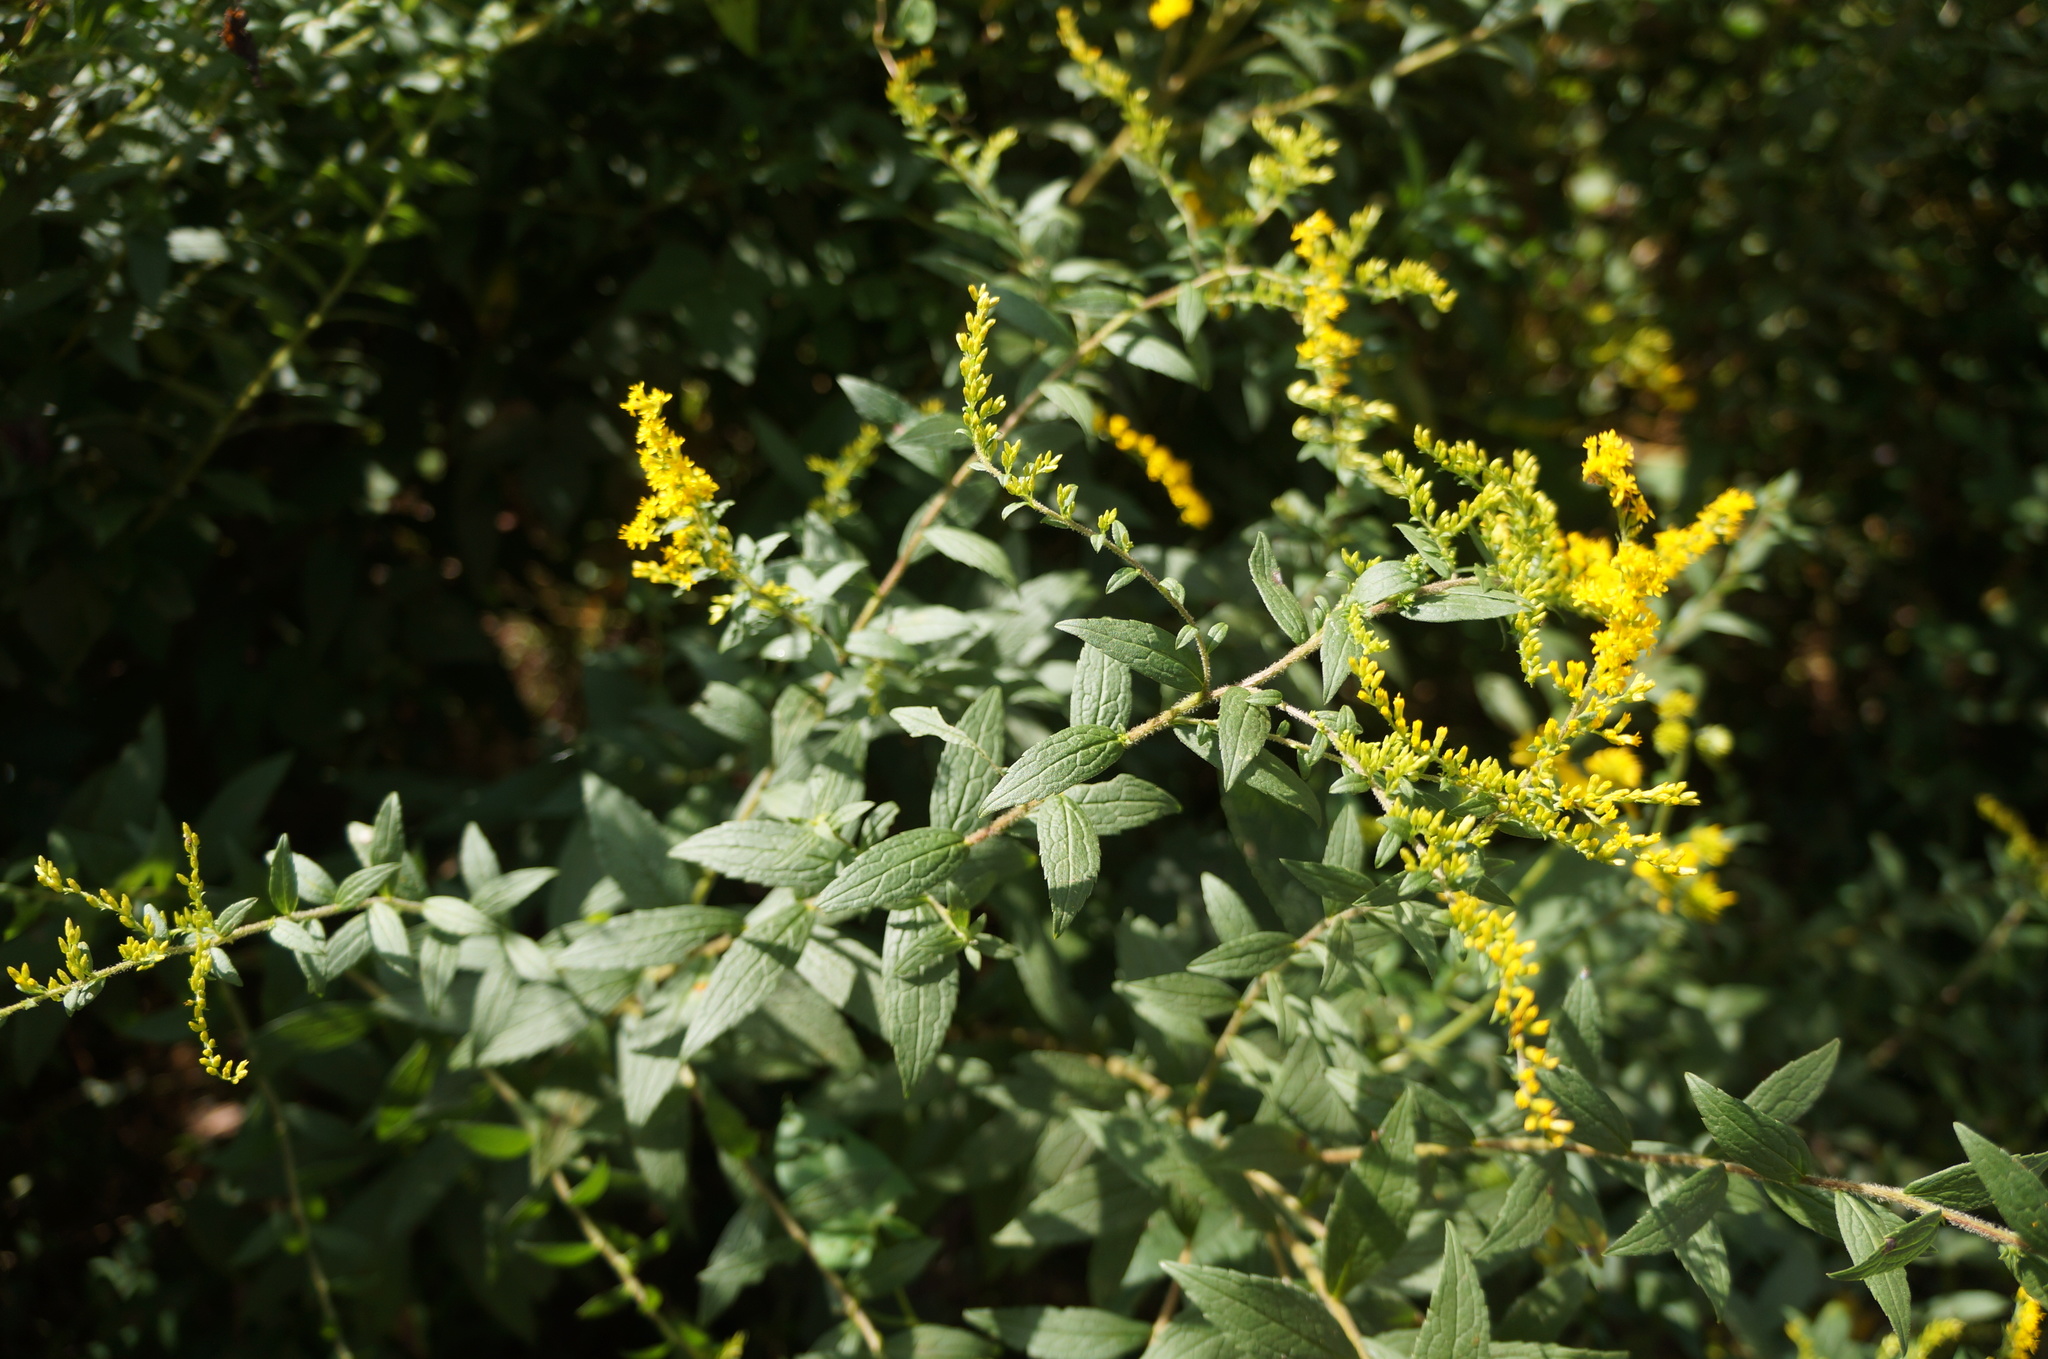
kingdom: Plantae
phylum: Tracheophyta
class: Magnoliopsida
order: Asterales
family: Asteraceae
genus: Solidago
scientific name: Solidago rugosa
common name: Rough-stemmed goldenrod
